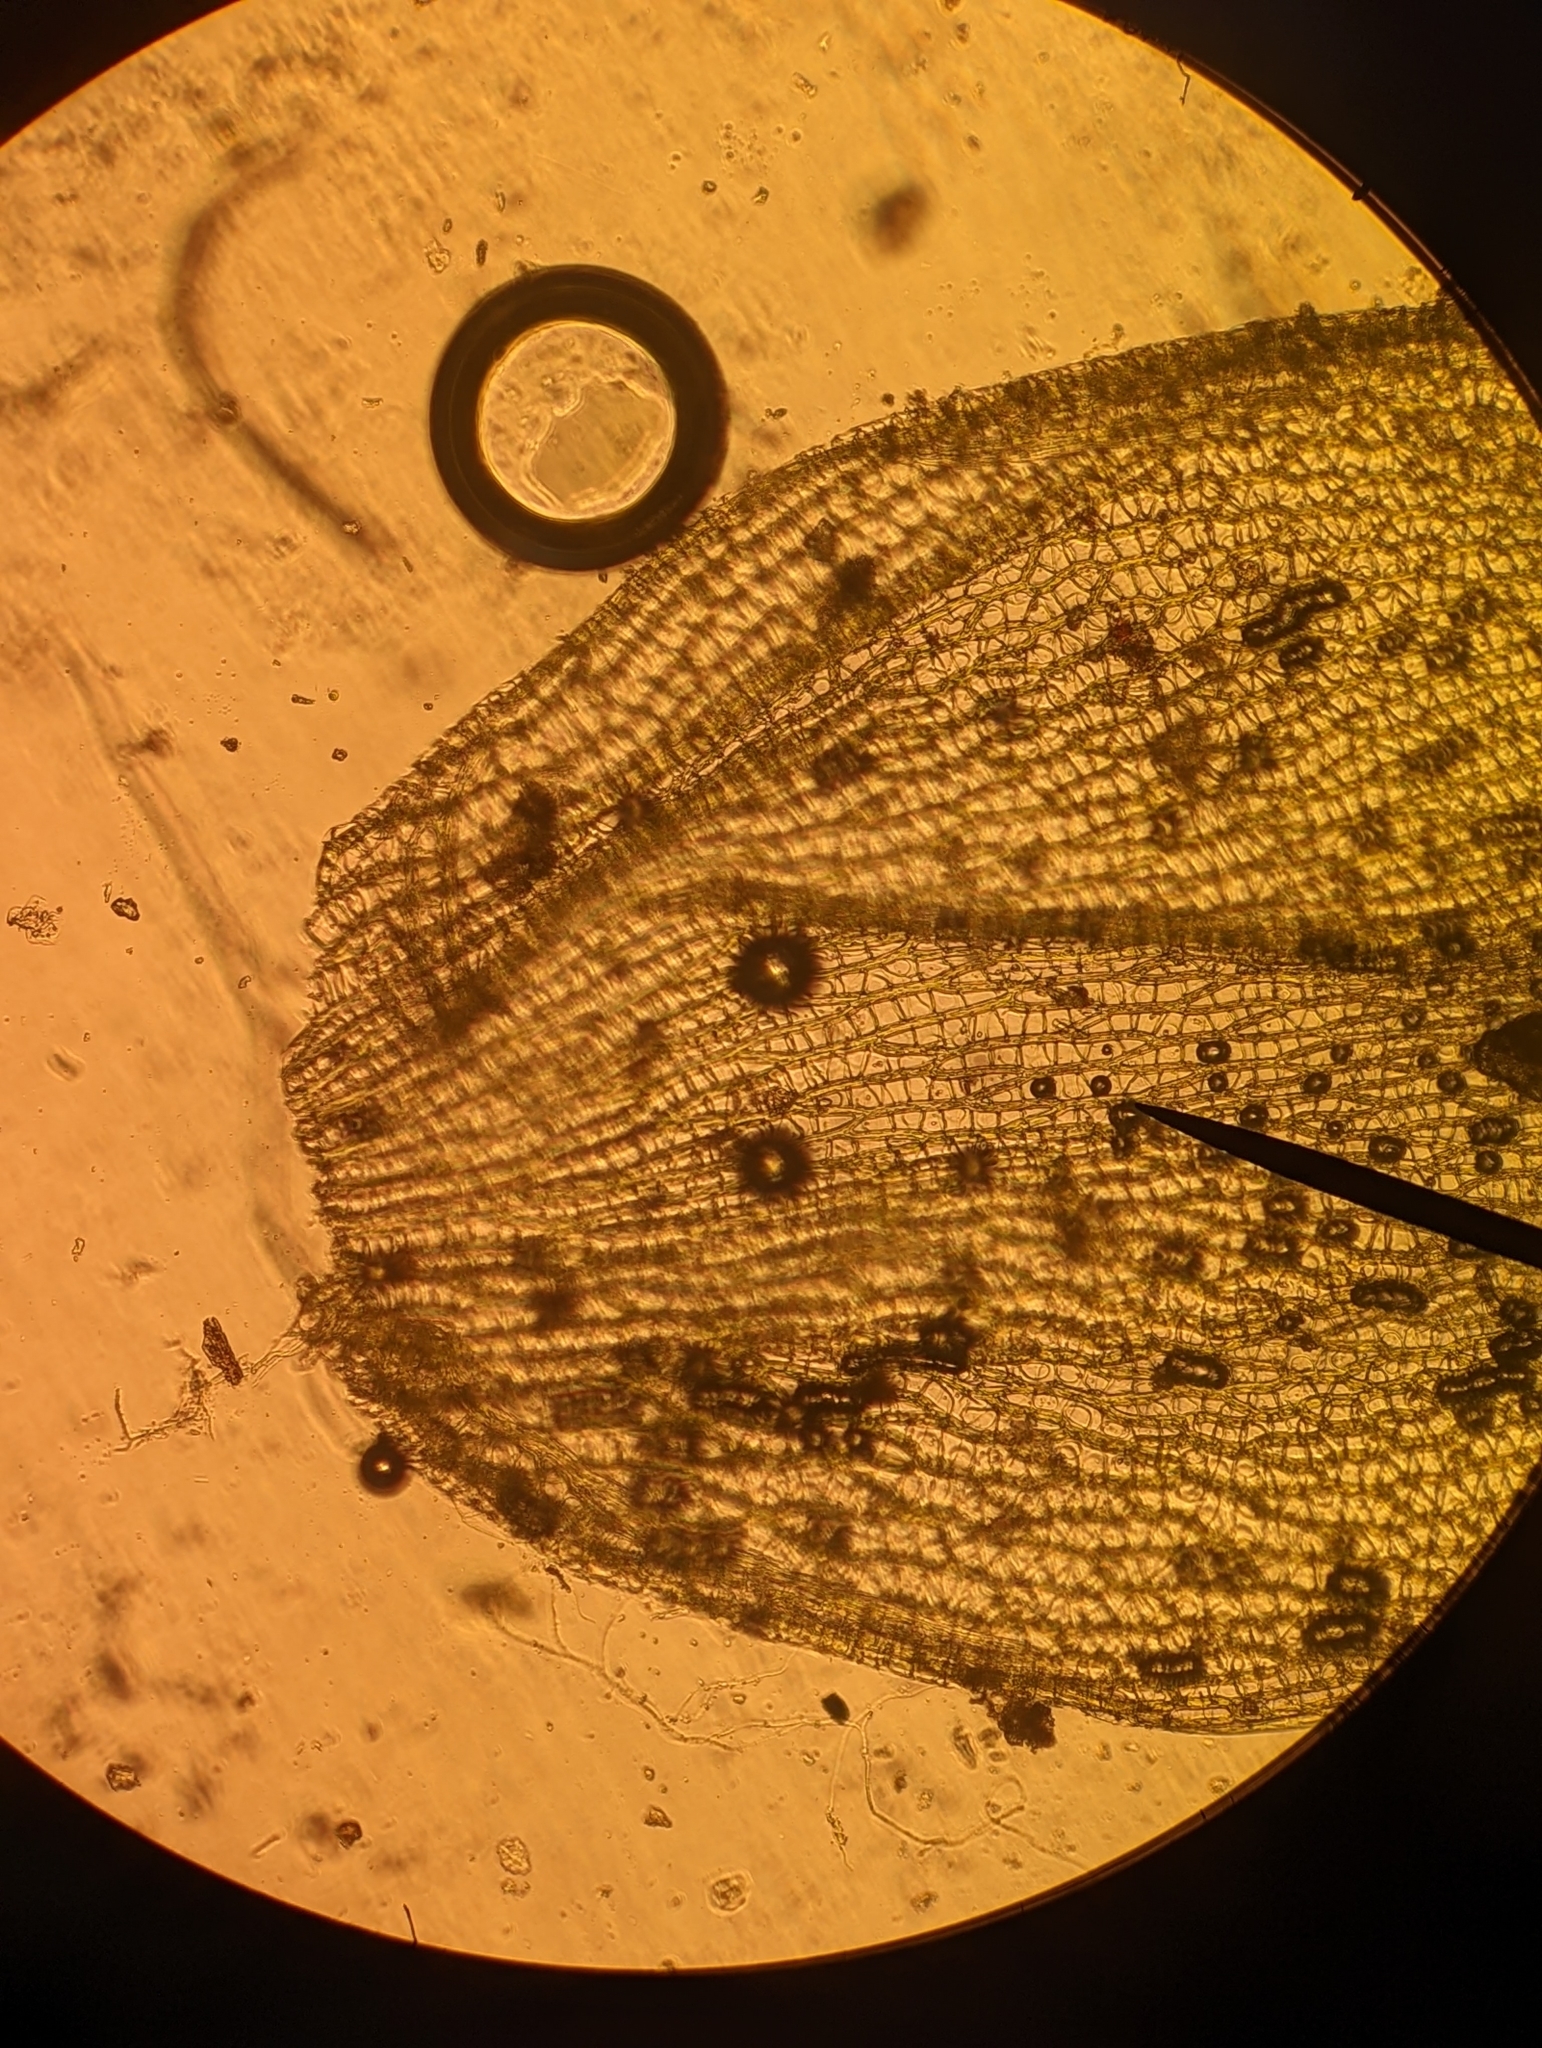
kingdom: Plantae
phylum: Bryophyta
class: Sphagnopsida
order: Sphagnales
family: Sphagnaceae
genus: Sphagnum
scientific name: Sphagnum squarrosum
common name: Shaggy peat moss
